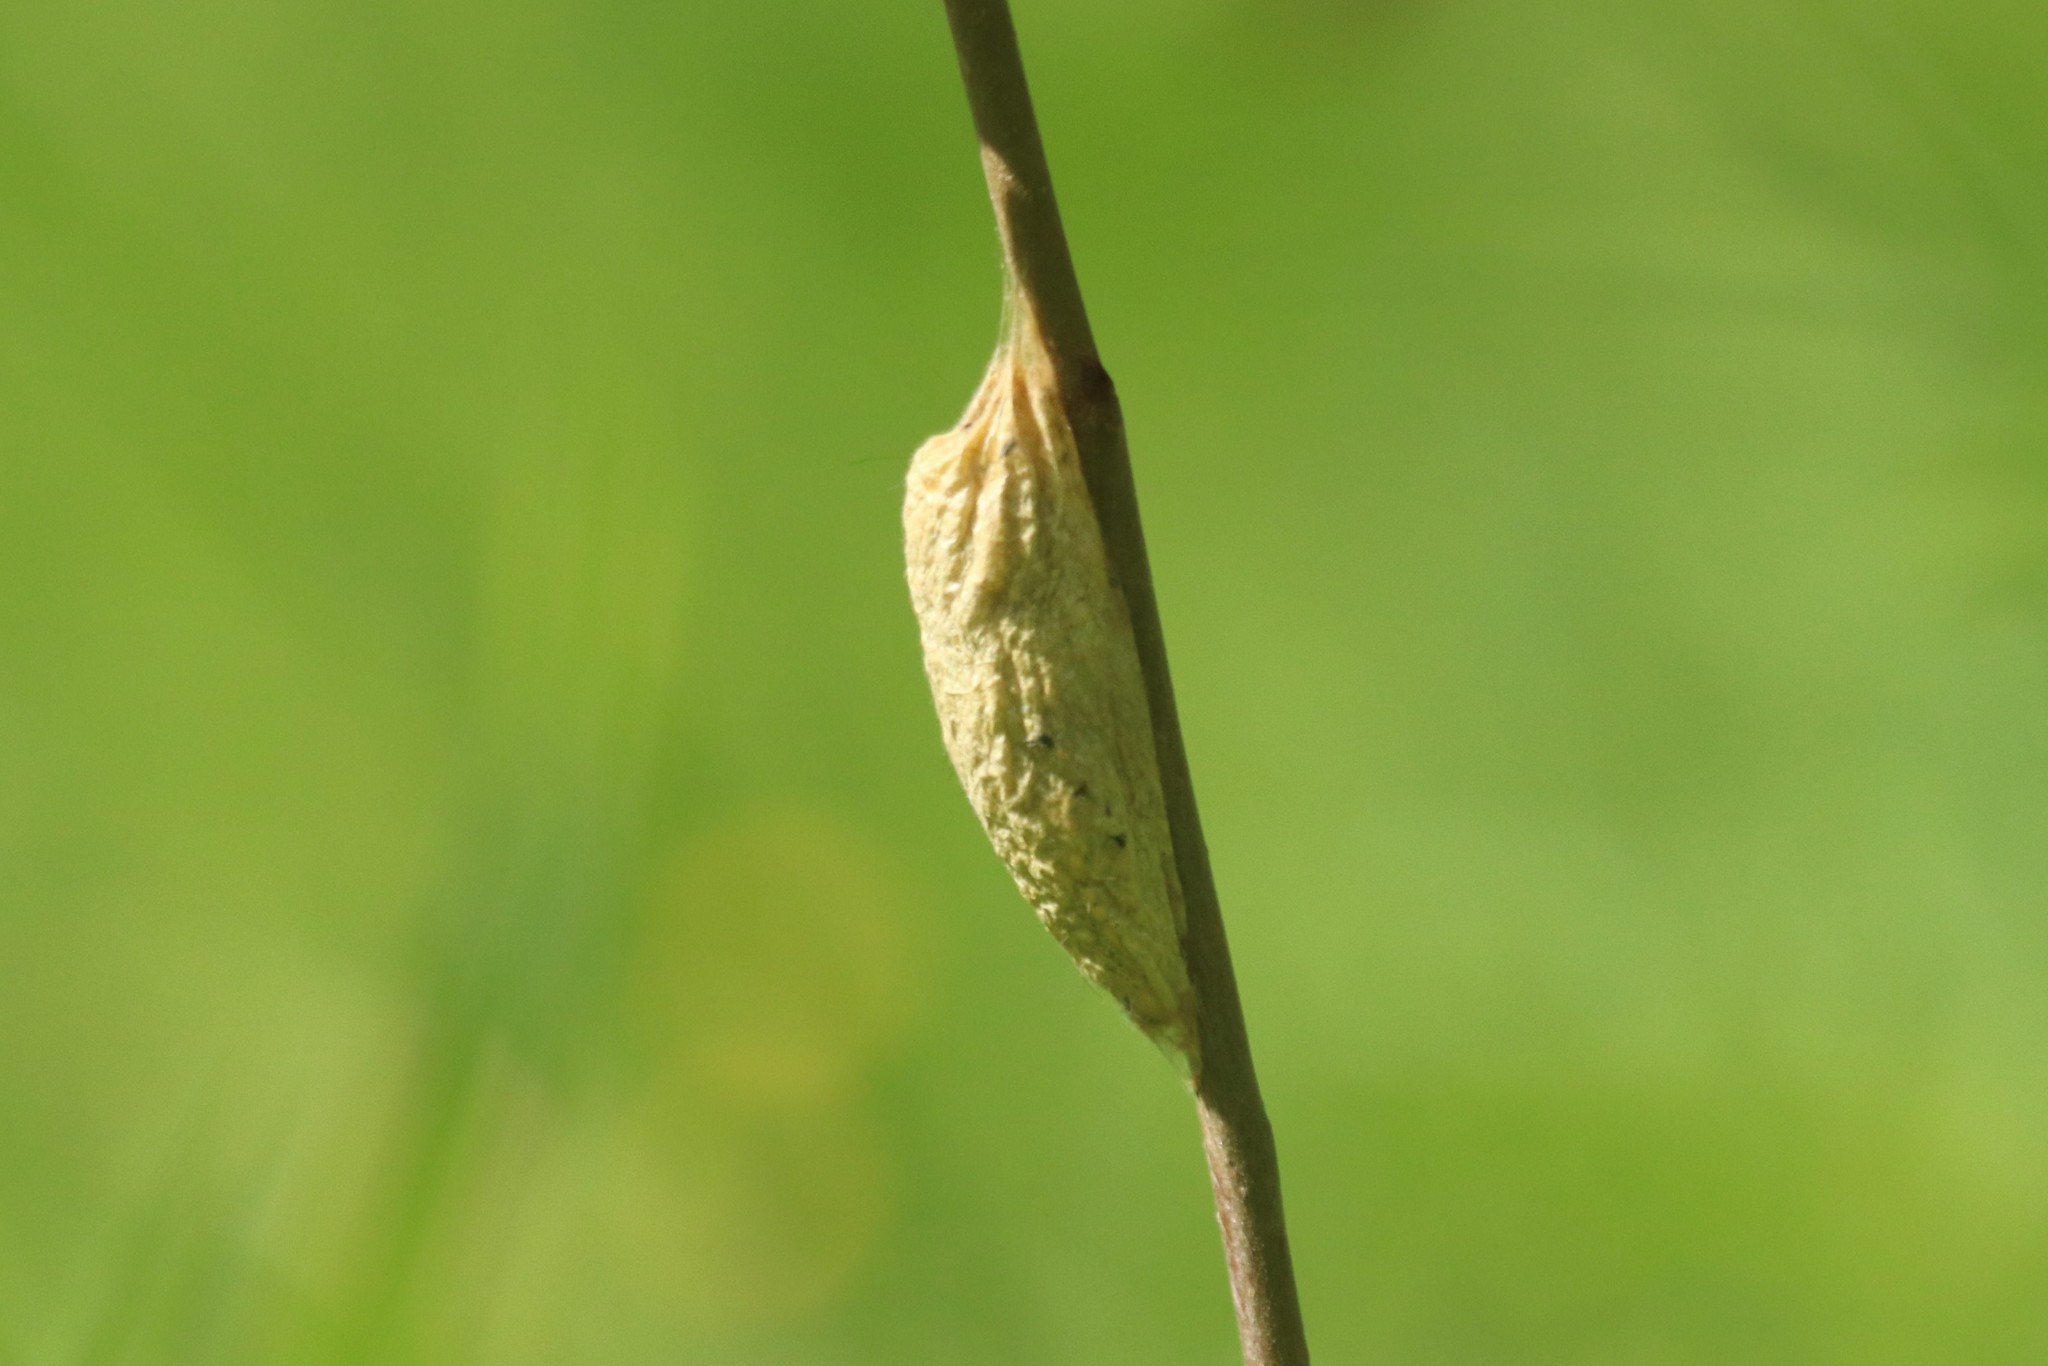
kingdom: Animalia
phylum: Arthropoda
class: Insecta
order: Lepidoptera
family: Lasiocampidae
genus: Euthrix
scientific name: Euthrix potatoria
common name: Drinker
